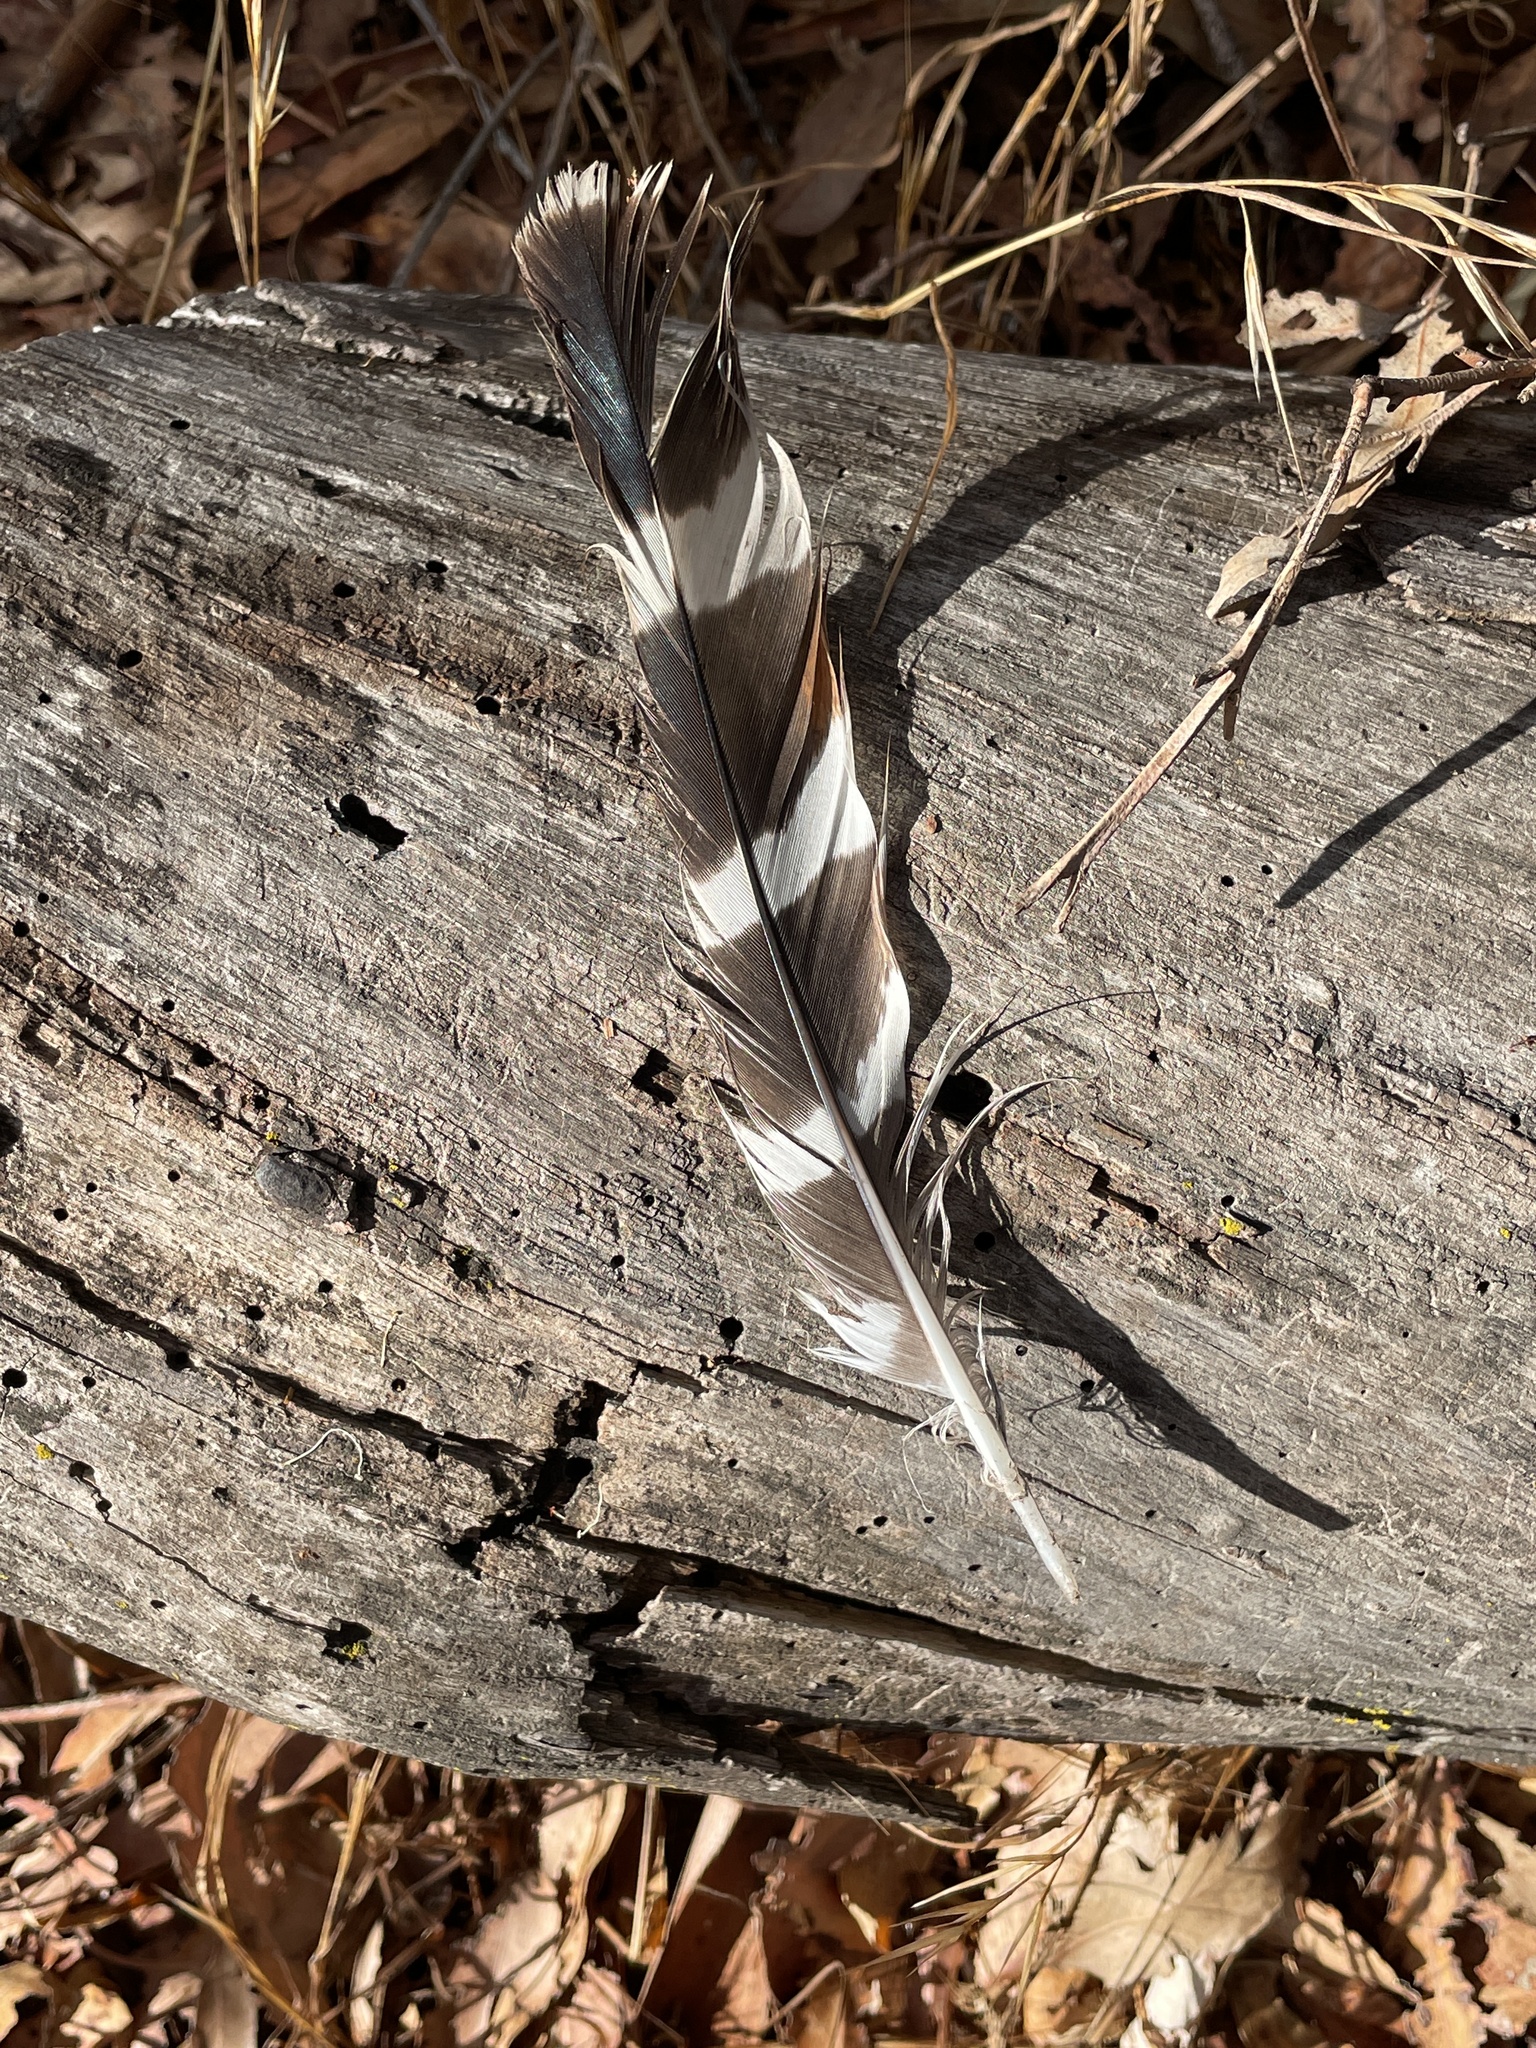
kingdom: Animalia
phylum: Chordata
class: Aves
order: Accipitriformes
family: Accipitridae
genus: Buteo
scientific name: Buteo lineatus
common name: Red-shouldered hawk
